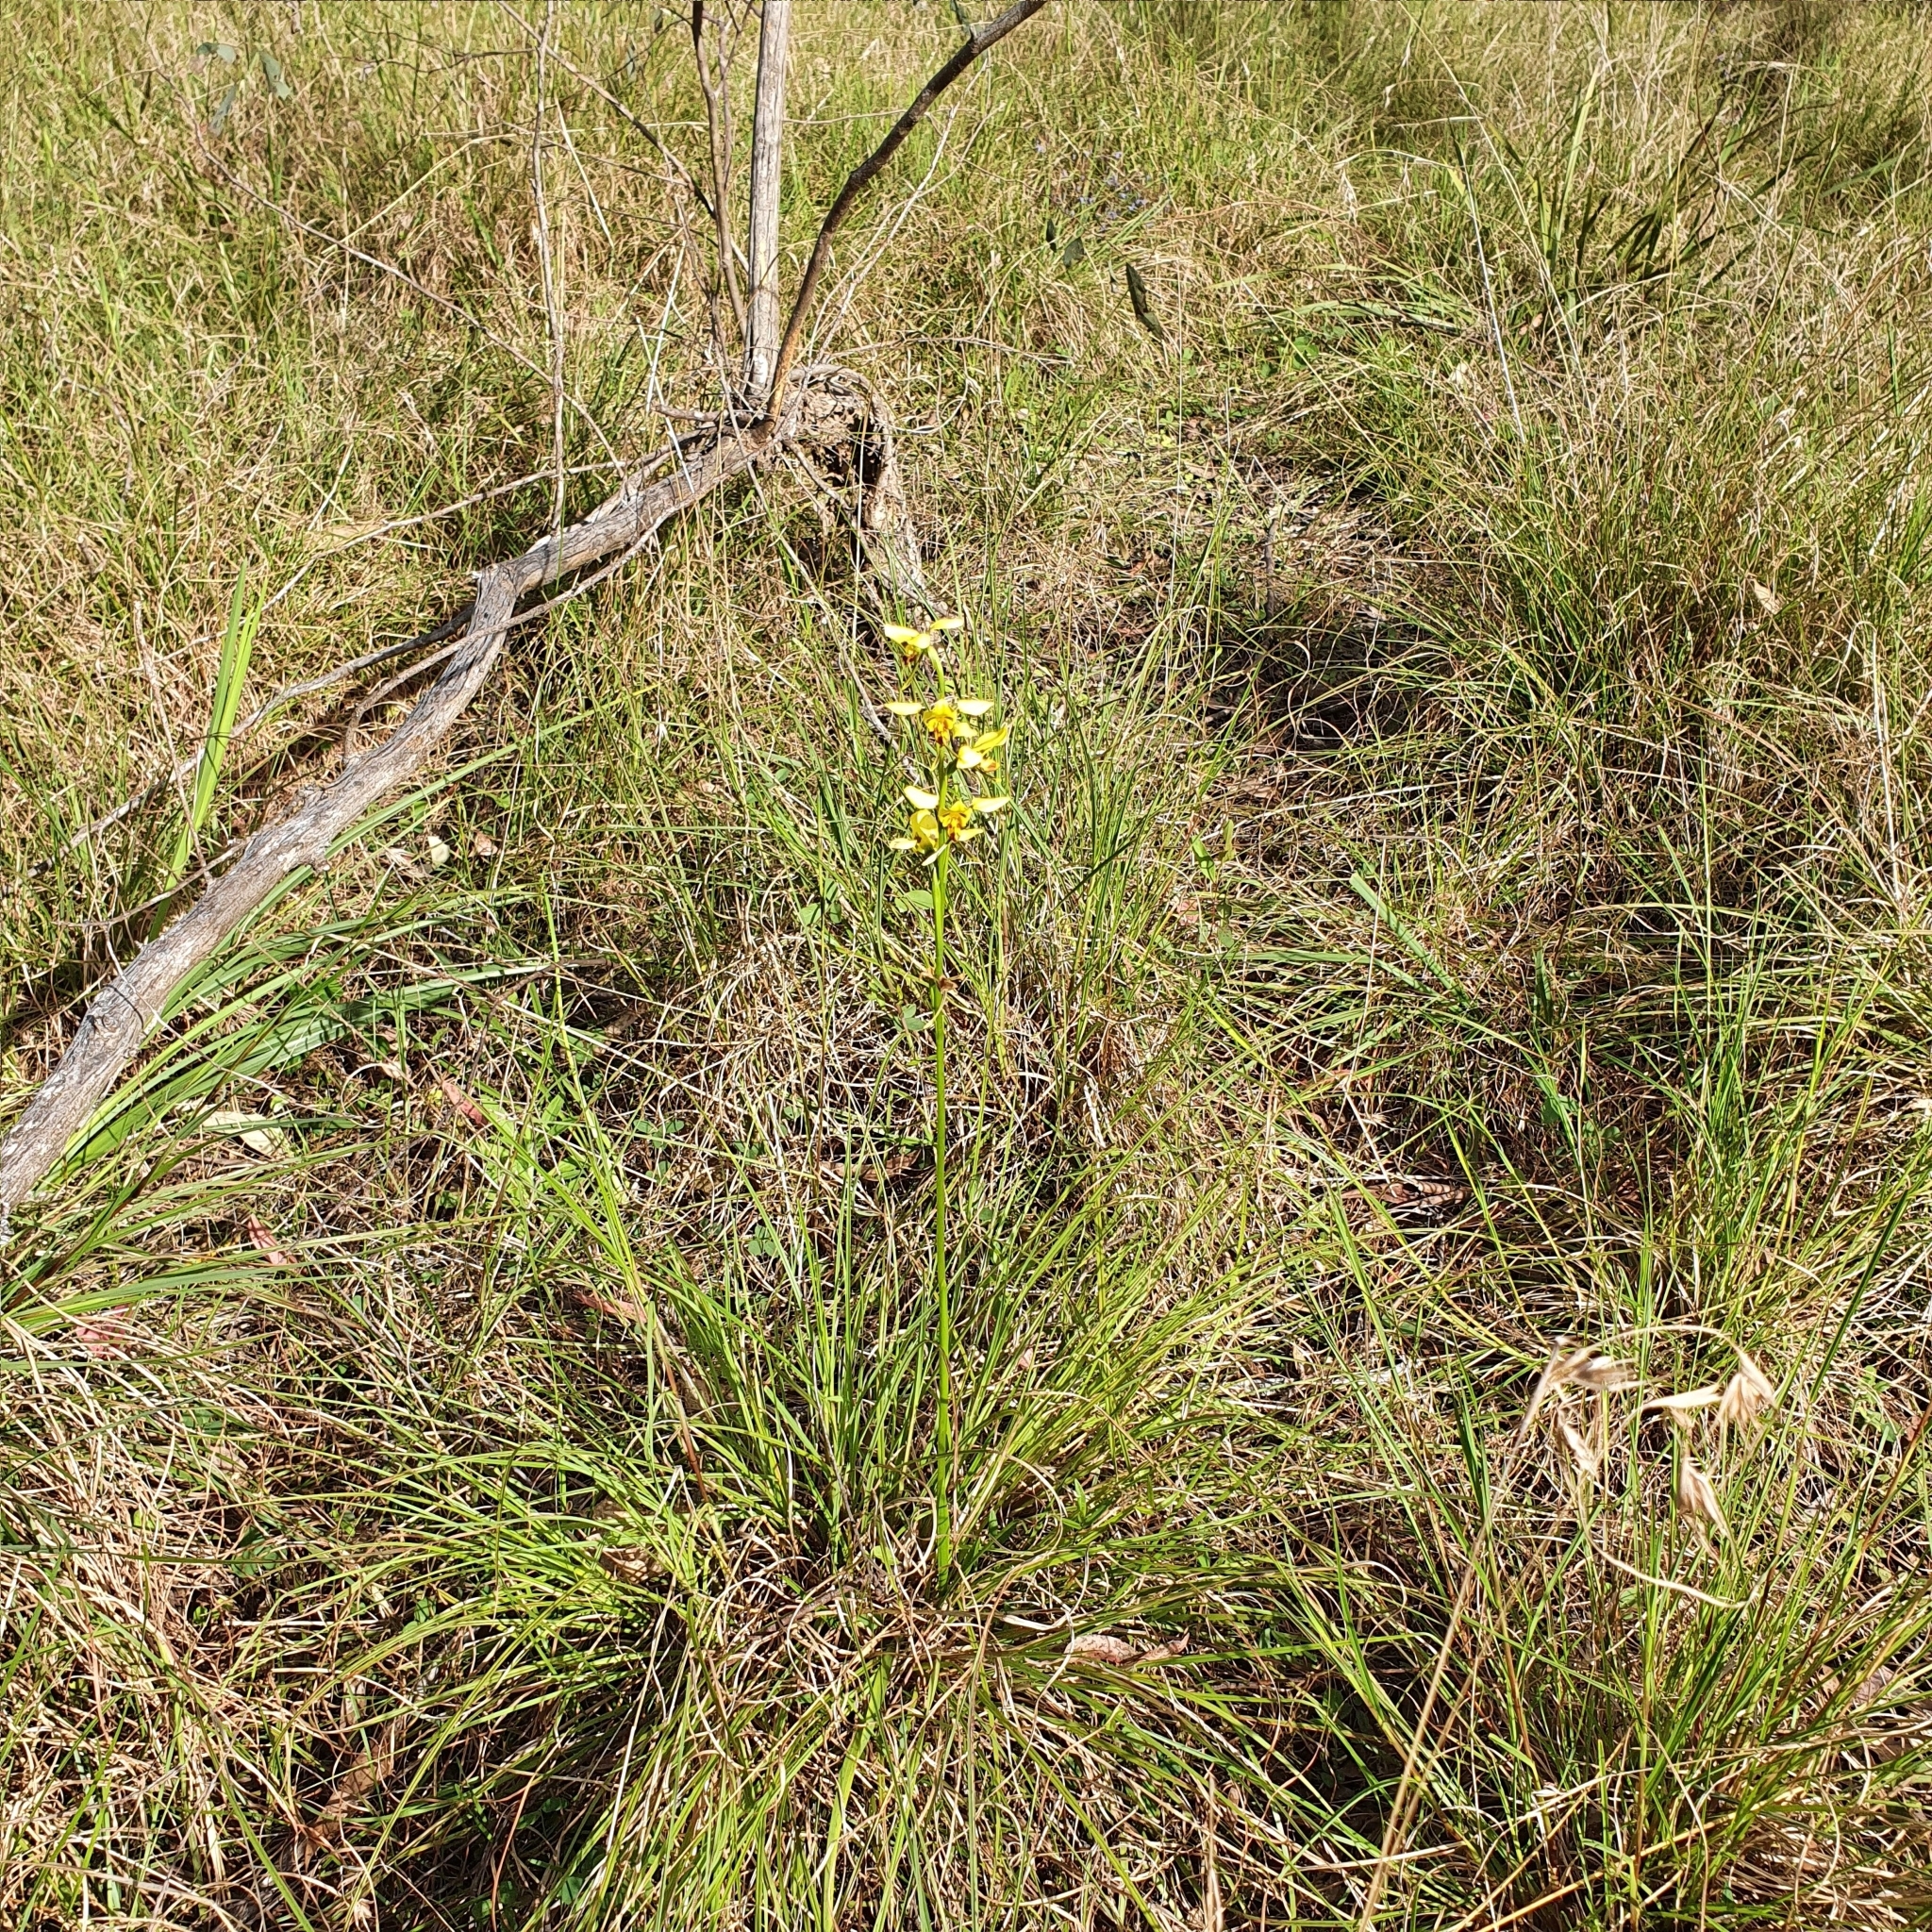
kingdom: Plantae
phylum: Tracheophyta
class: Liliopsida
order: Asparagales
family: Orchidaceae
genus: Diuris
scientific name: Diuris sulphurea
